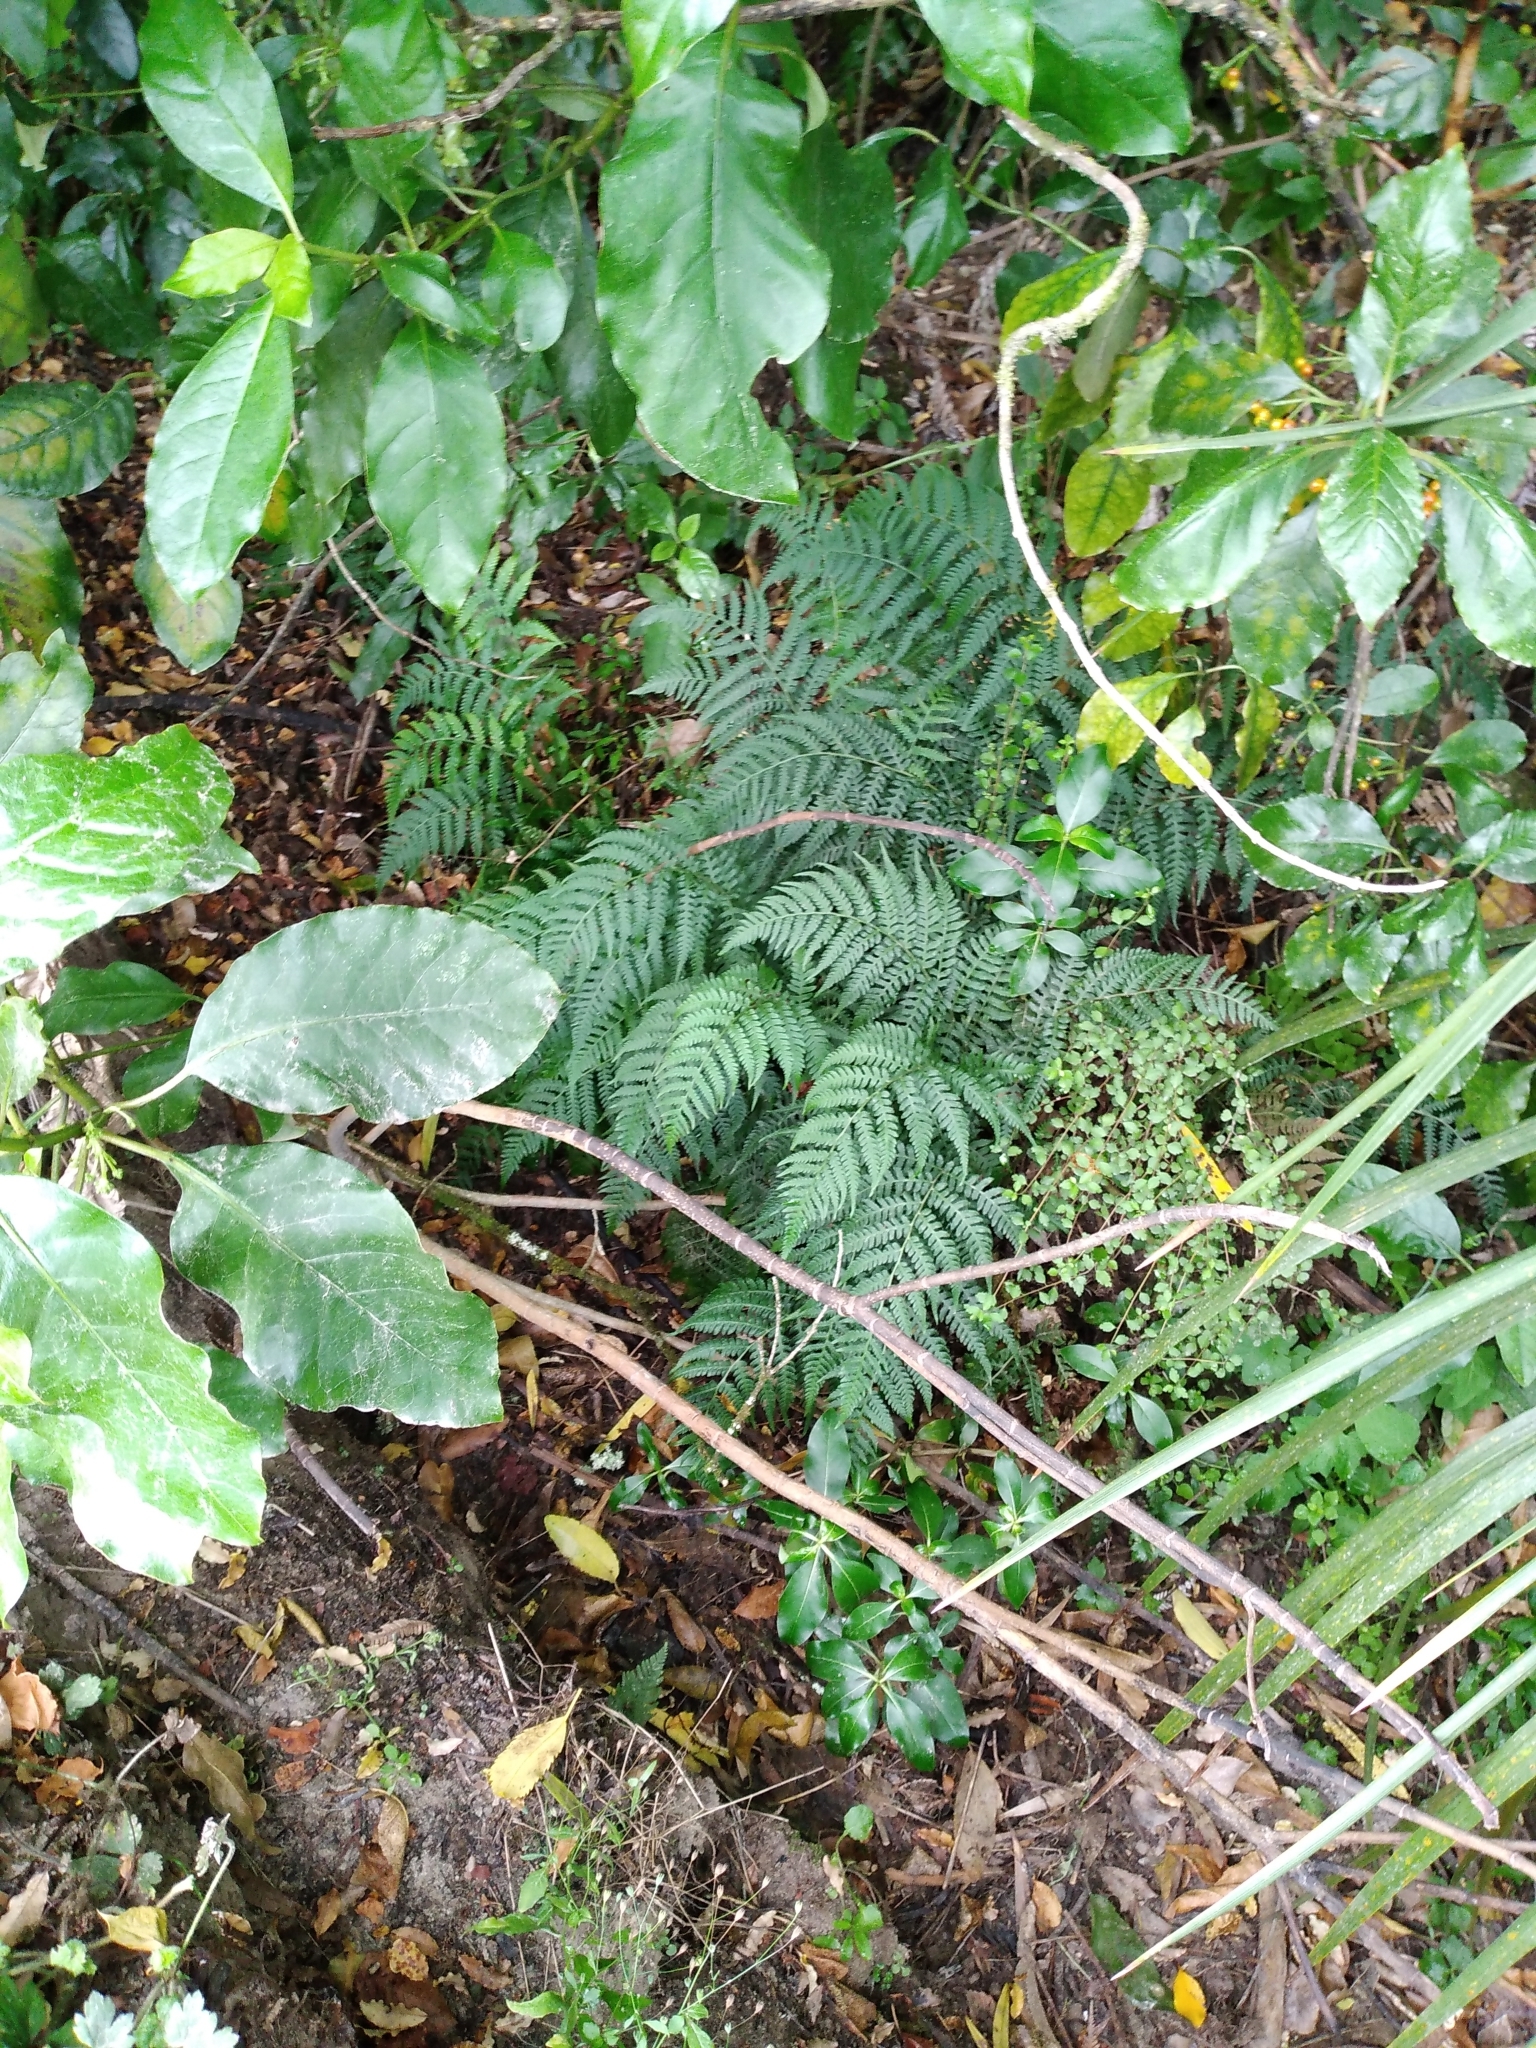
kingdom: Plantae
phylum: Tracheophyta
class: Polypodiopsida
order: Polypodiales
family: Athyriaceae
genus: Diplazium
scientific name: Diplazium congruum
